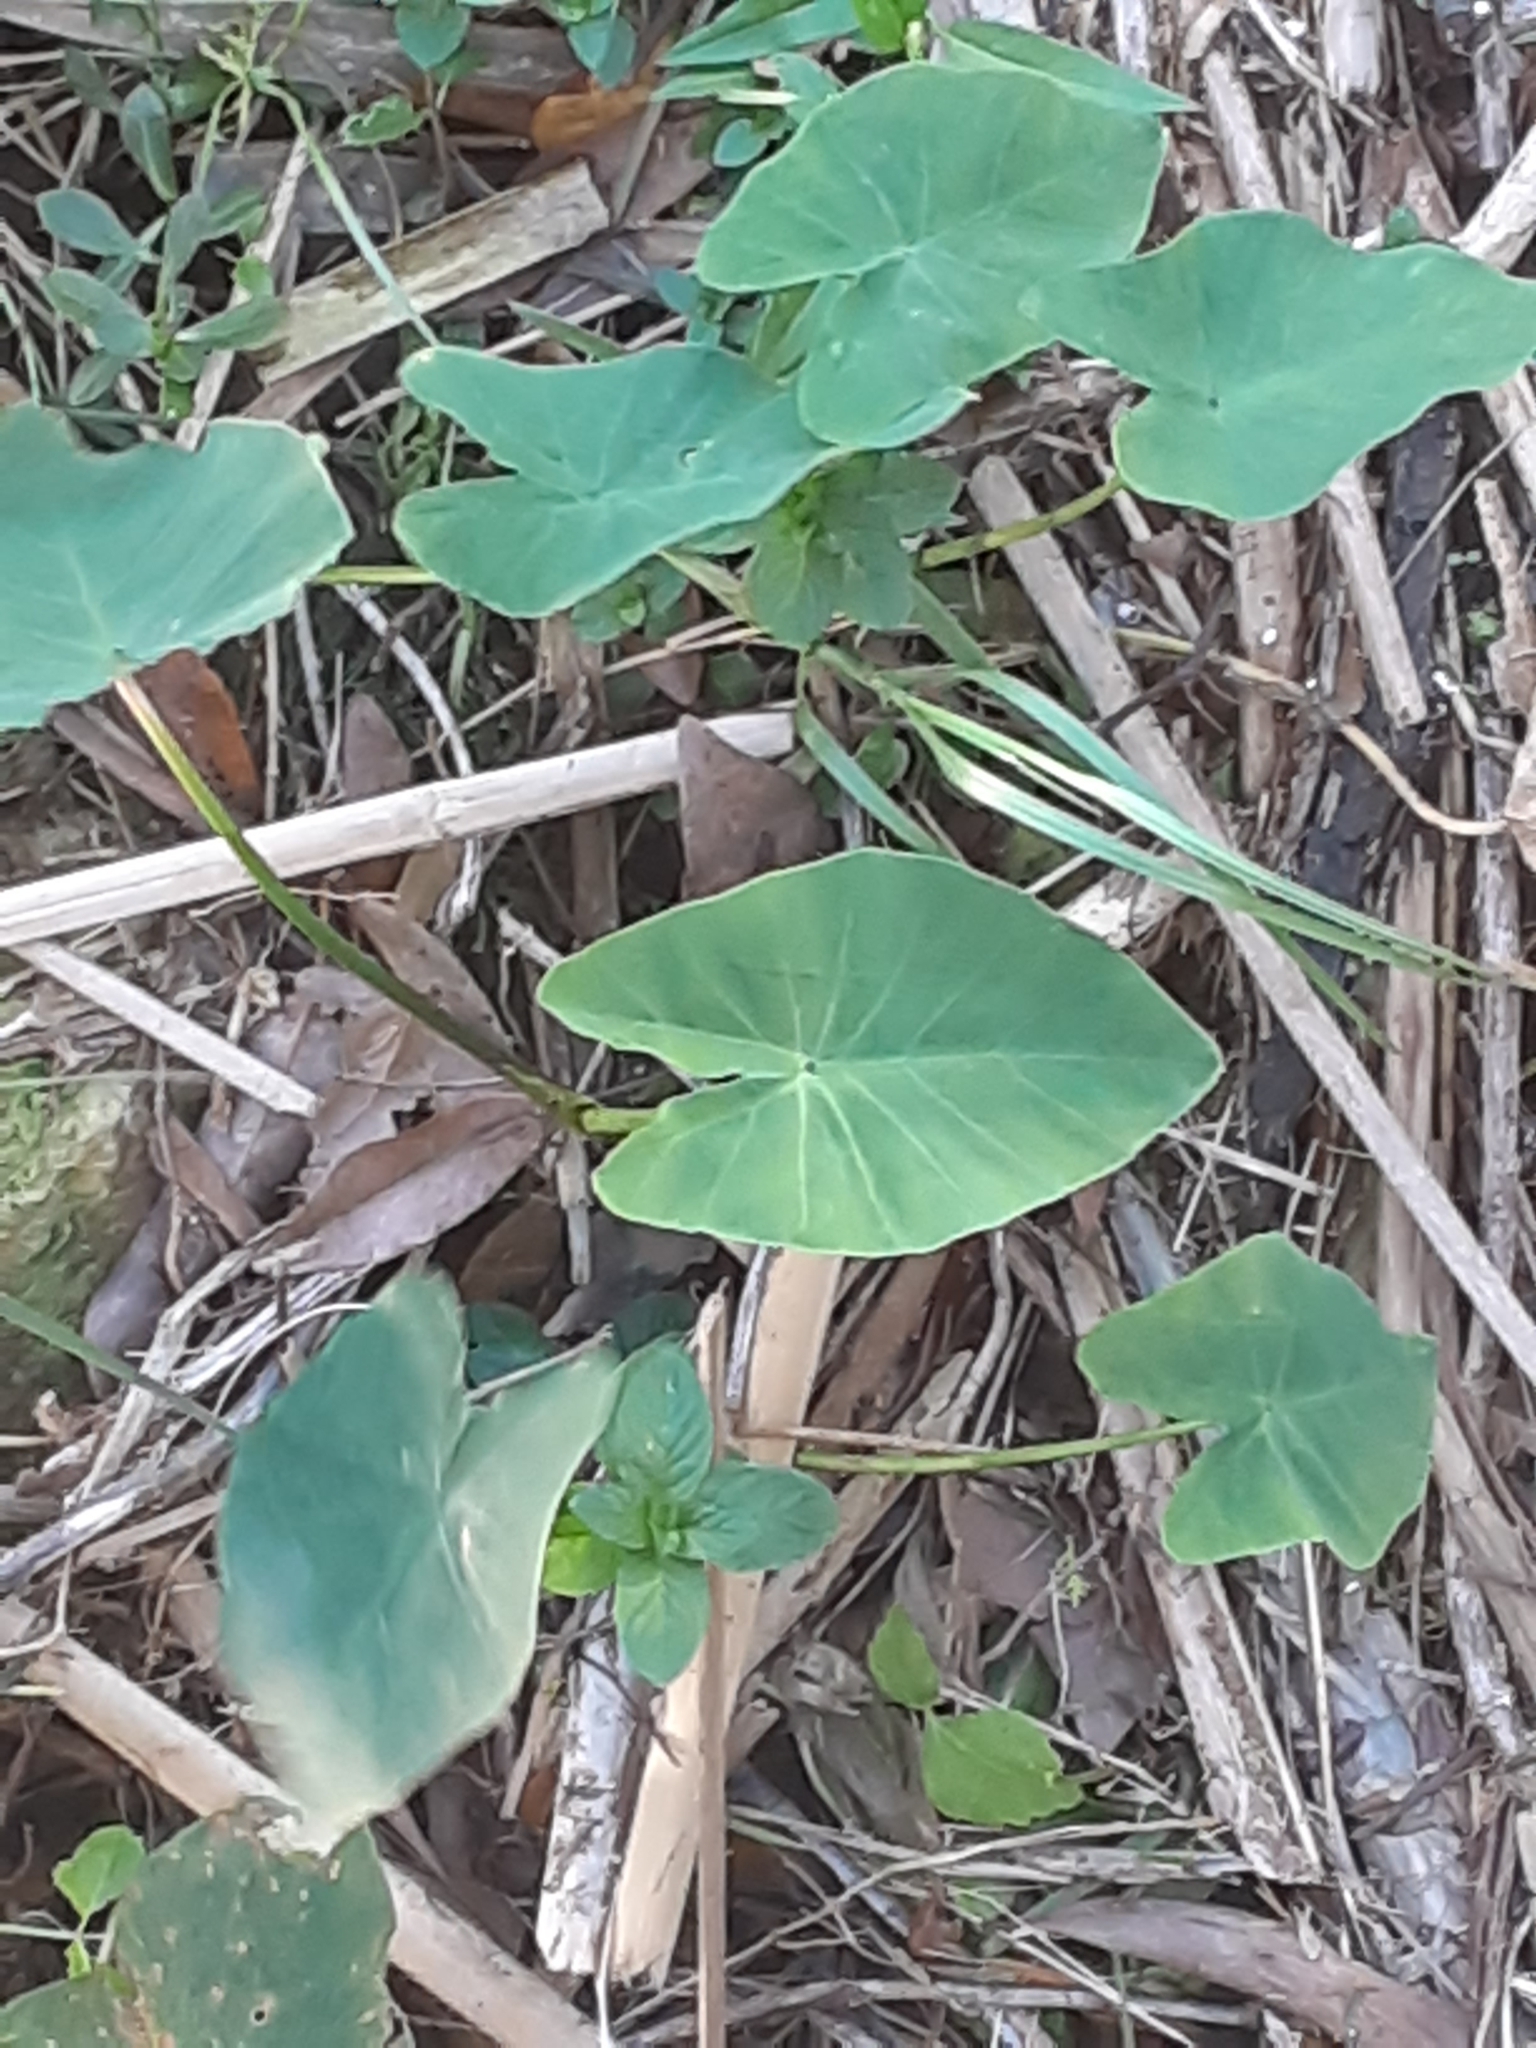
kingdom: Plantae
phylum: Tracheophyta
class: Liliopsida
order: Alismatales
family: Araceae
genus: Colocasia
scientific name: Colocasia esculenta
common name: Taro
